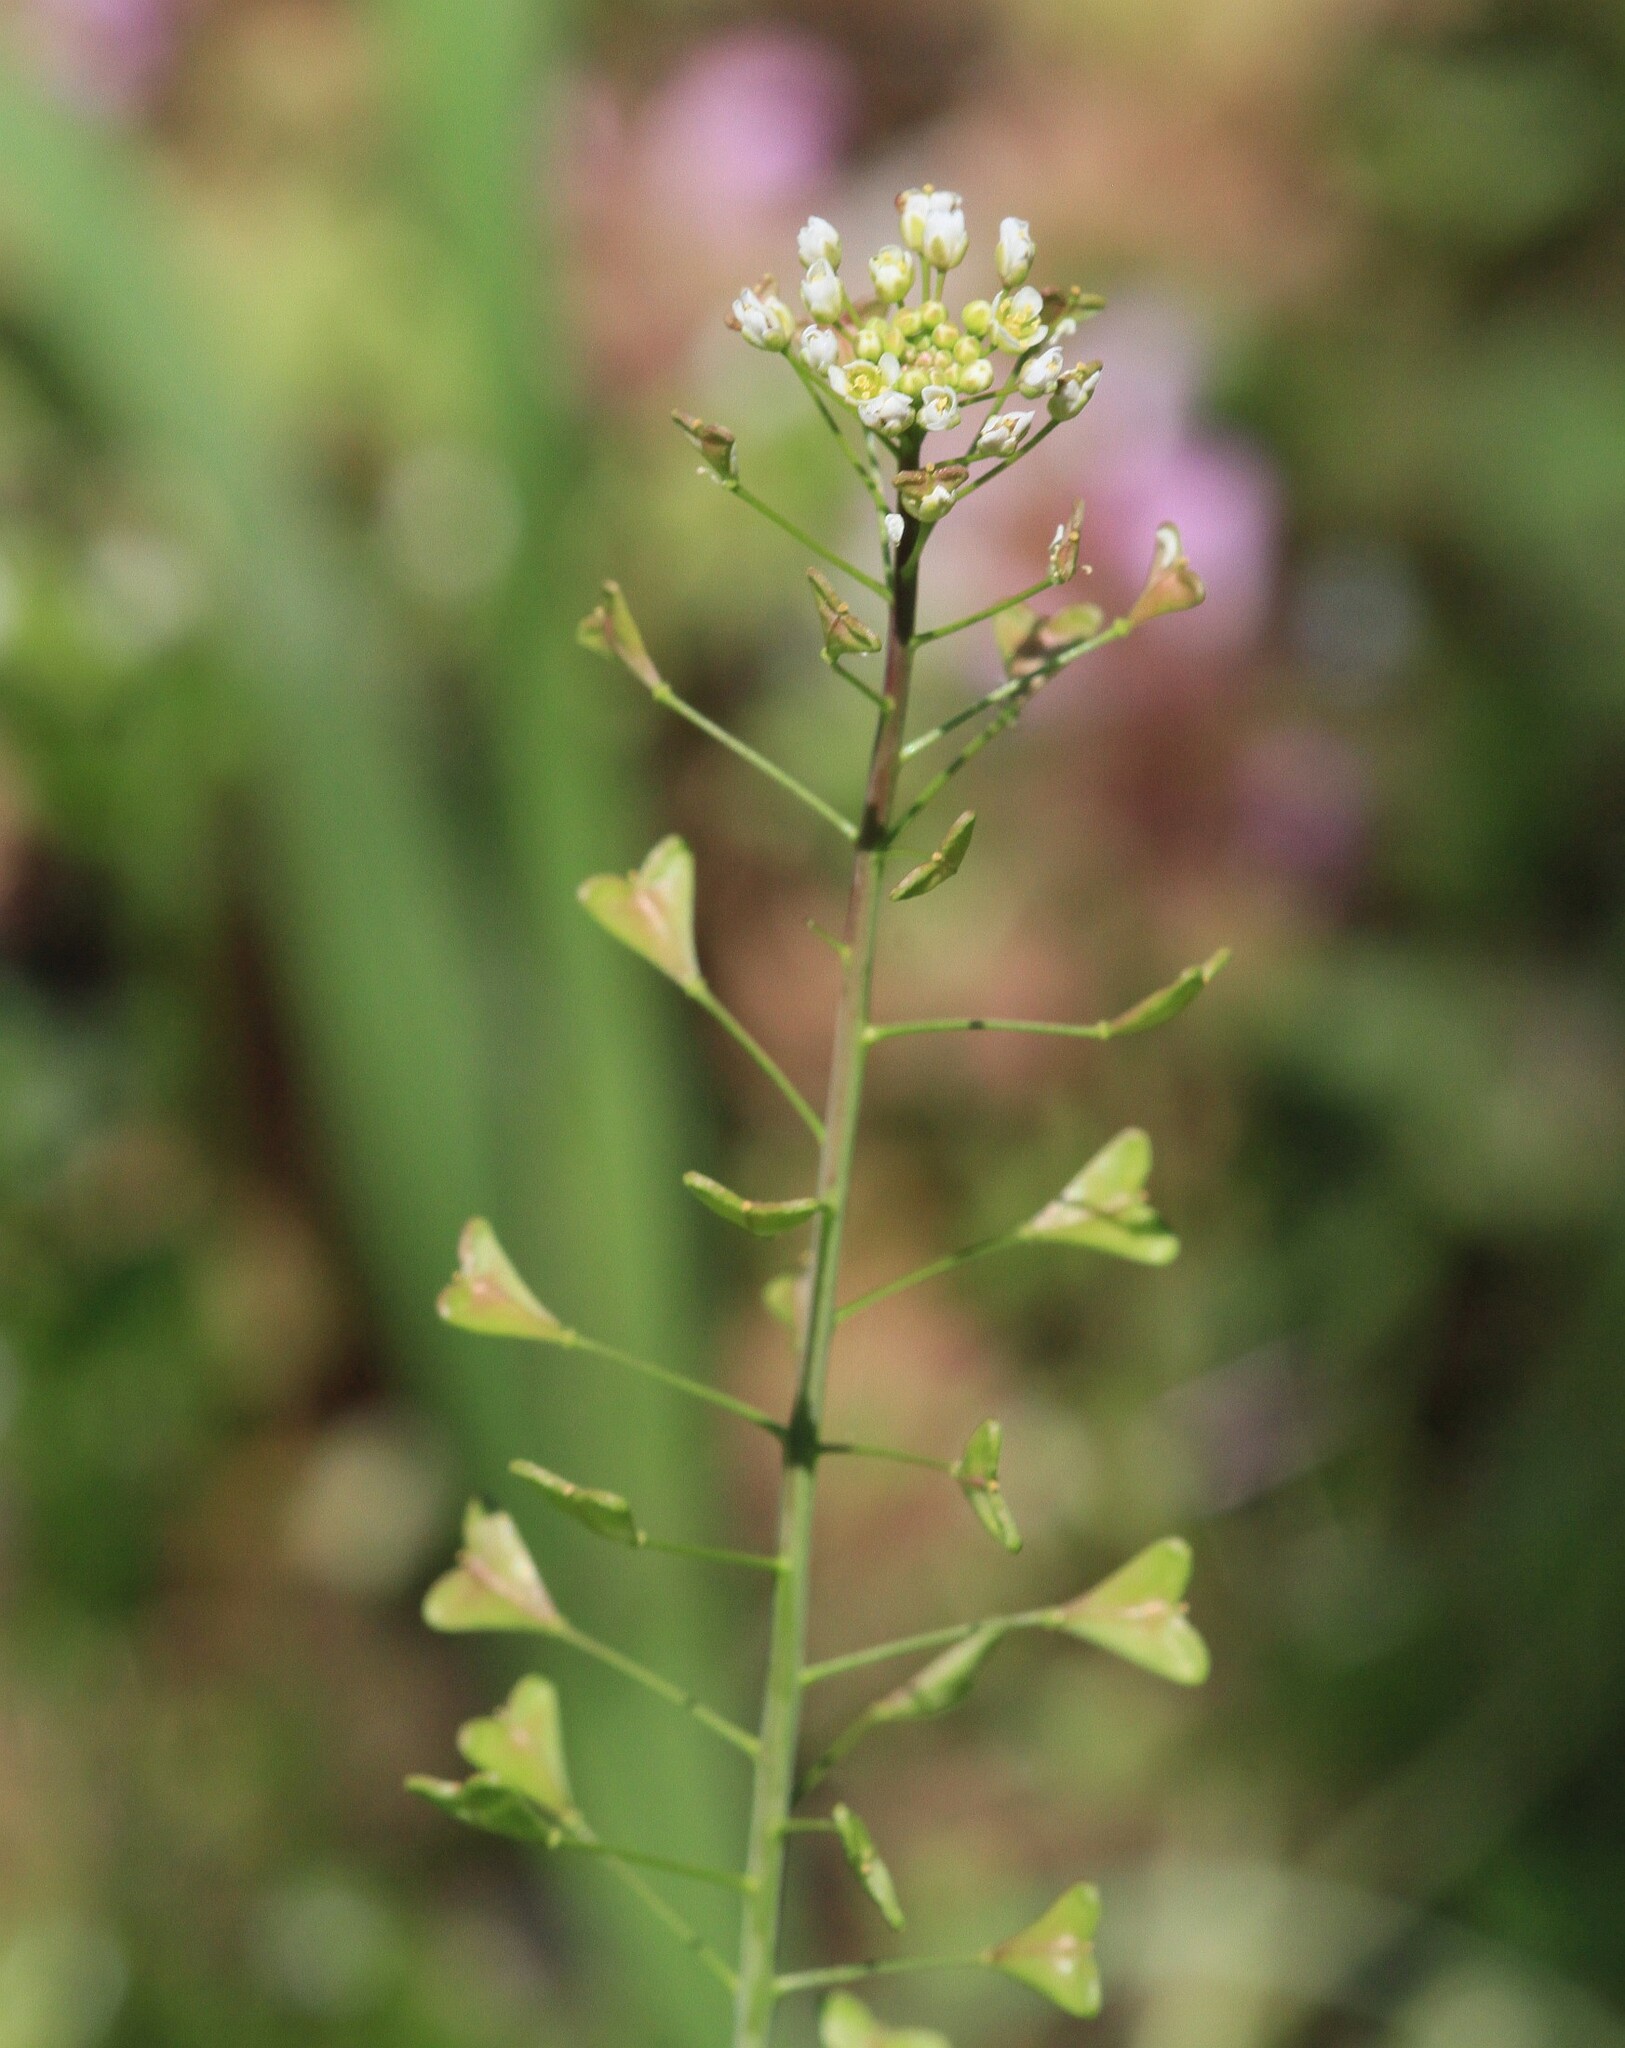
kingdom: Plantae
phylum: Tracheophyta
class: Magnoliopsida
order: Brassicales
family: Brassicaceae
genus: Capsella
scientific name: Capsella bursa-pastoris
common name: Shepherd's purse
